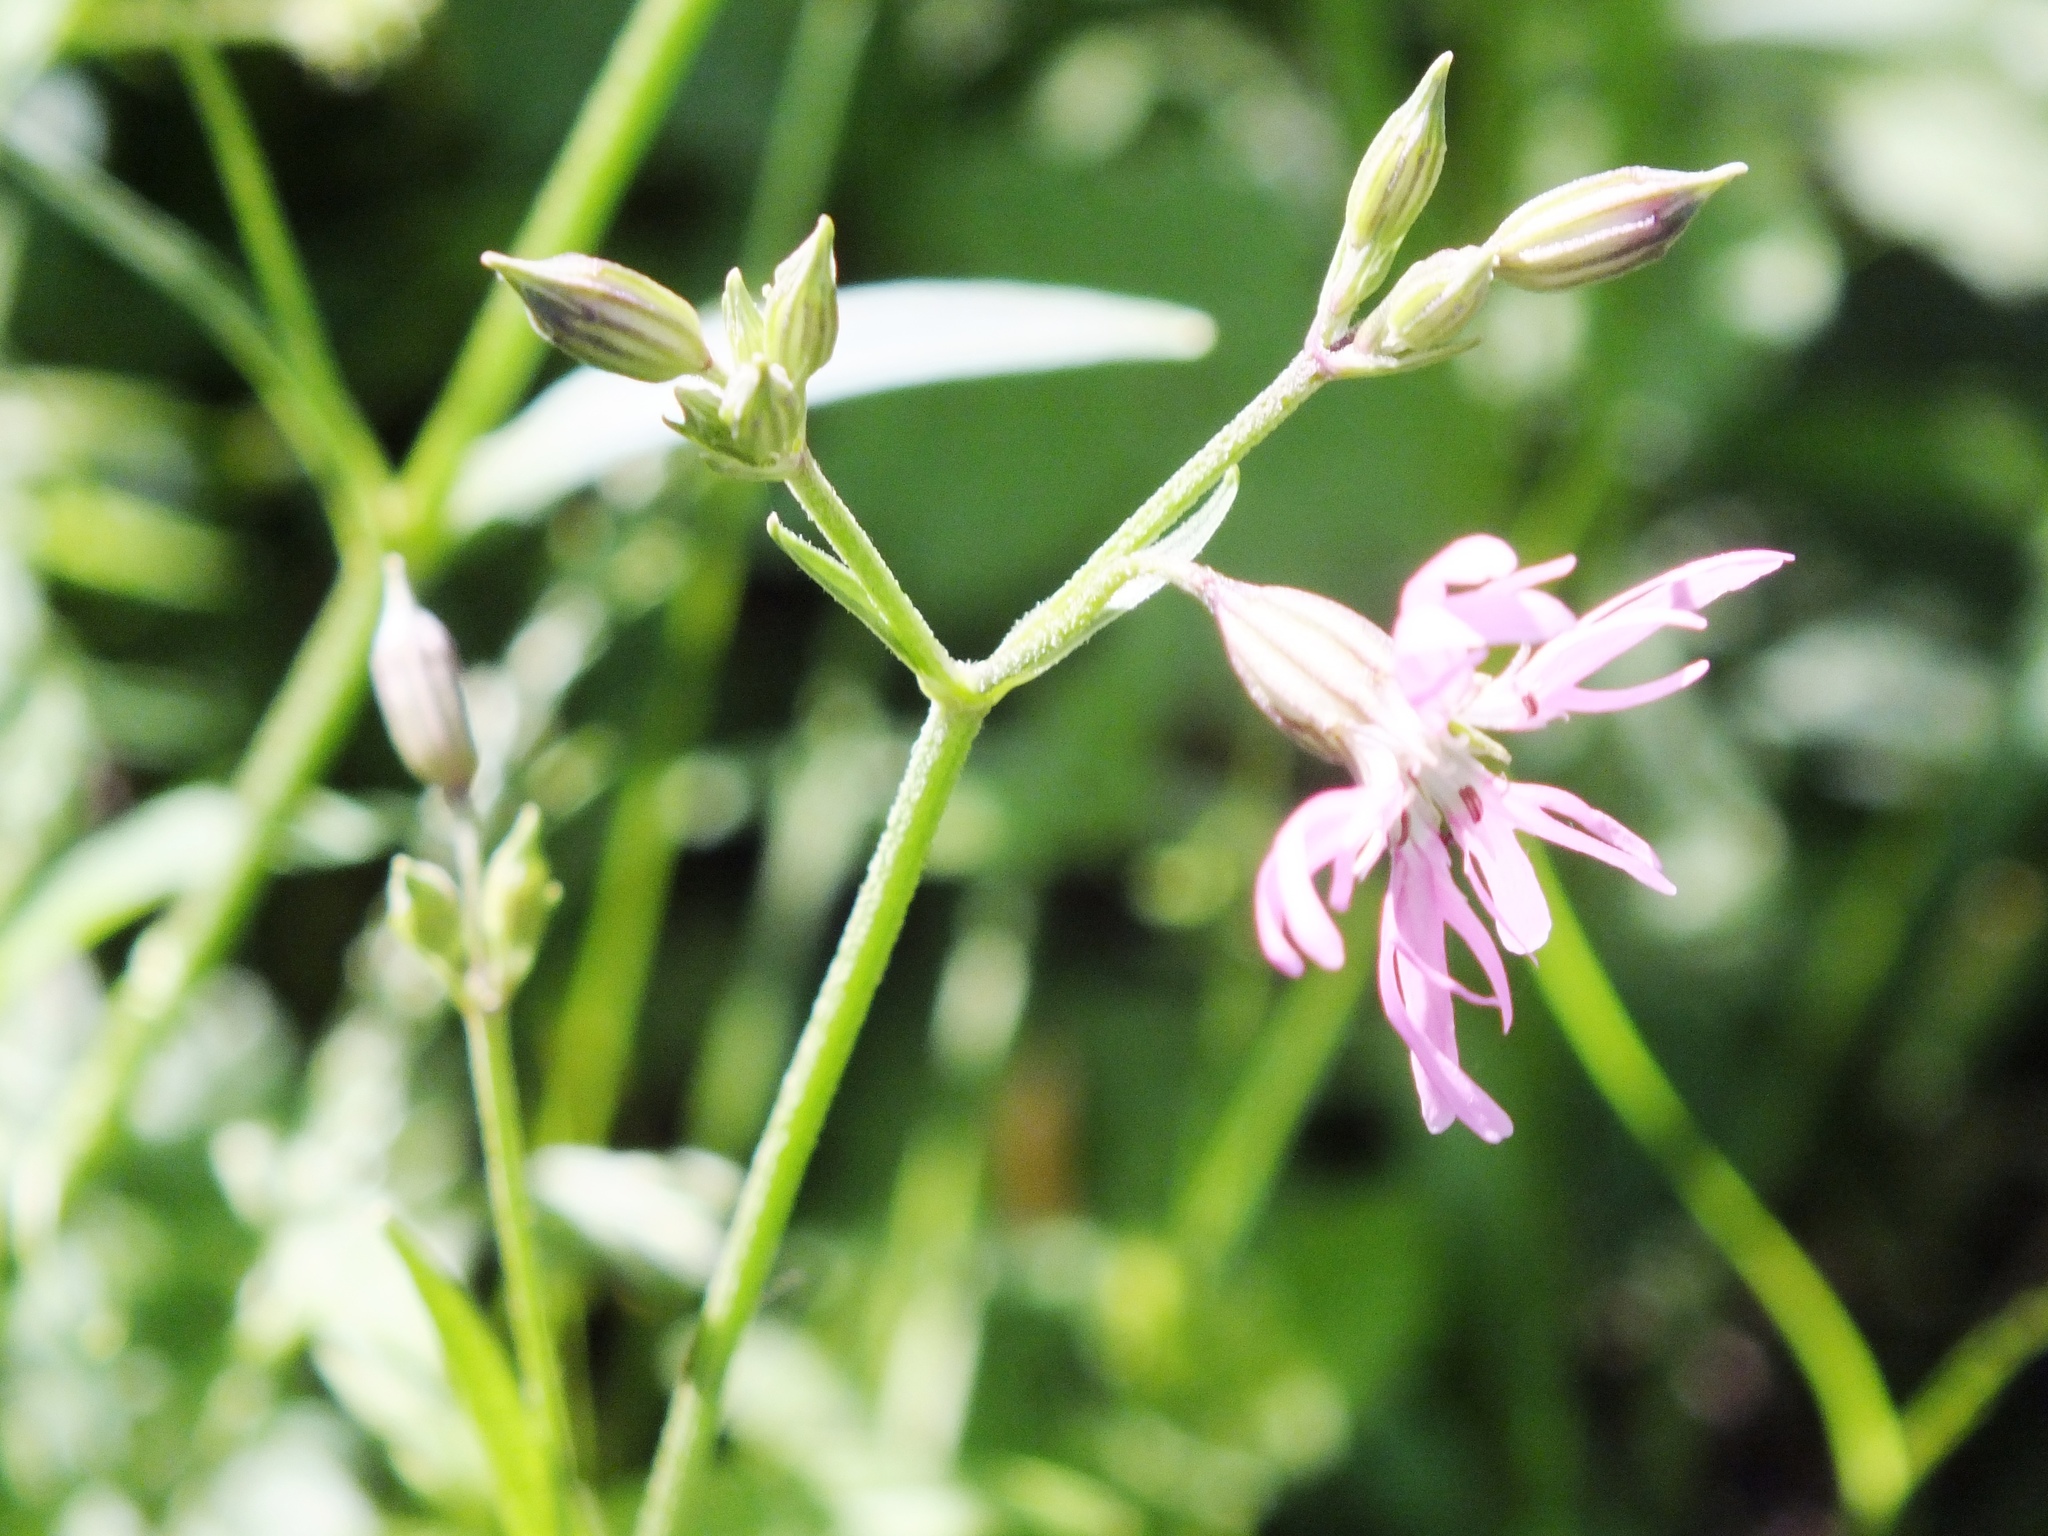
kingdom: Plantae
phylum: Tracheophyta
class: Magnoliopsida
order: Caryophyllales
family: Caryophyllaceae
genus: Silene
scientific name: Silene flos-cuculi
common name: Ragged-robin
